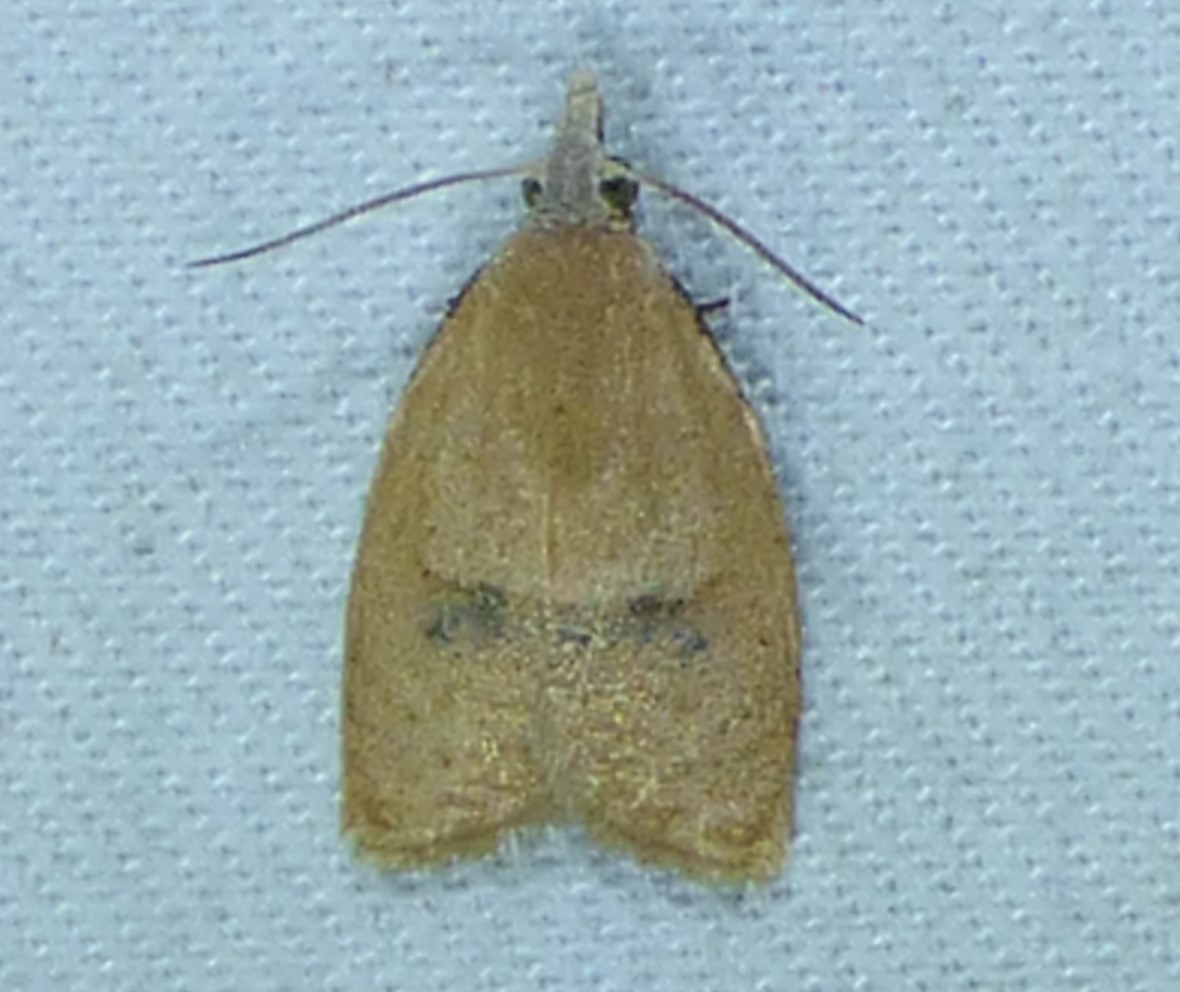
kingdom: Animalia
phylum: Arthropoda
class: Insecta
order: Lepidoptera
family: Tortricidae
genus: Sparganothoides
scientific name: Sparganothoides lentiginosana
